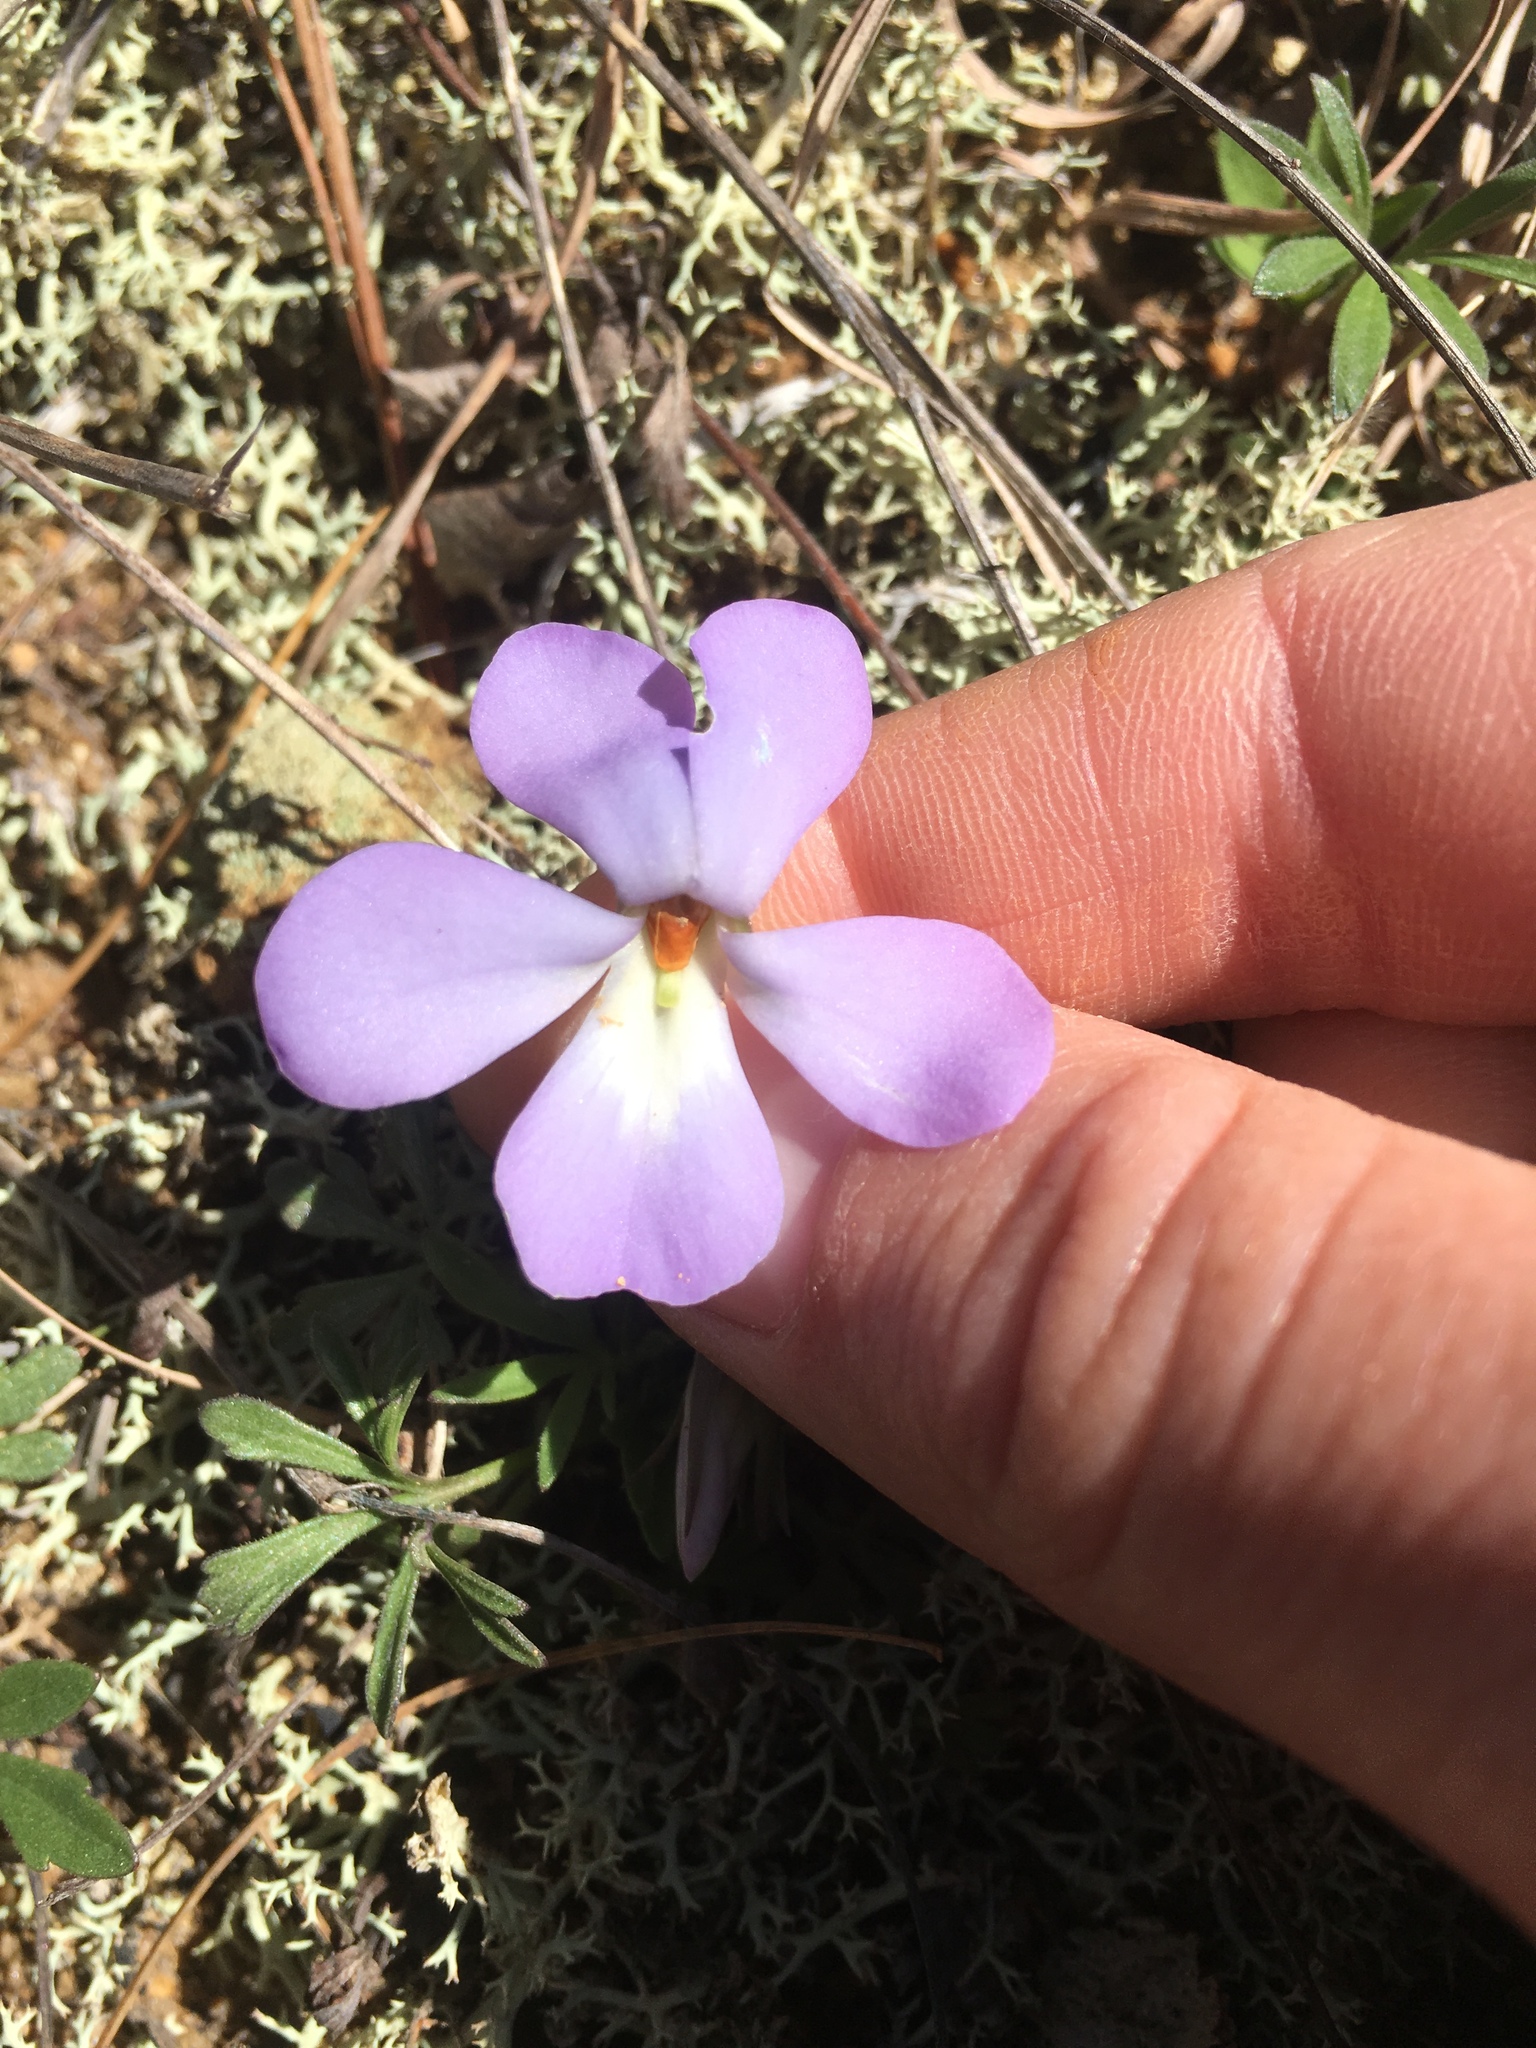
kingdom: Plantae
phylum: Tracheophyta
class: Magnoliopsida
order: Malpighiales
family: Violaceae
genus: Viola
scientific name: Viola pedata
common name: Pansy violet
